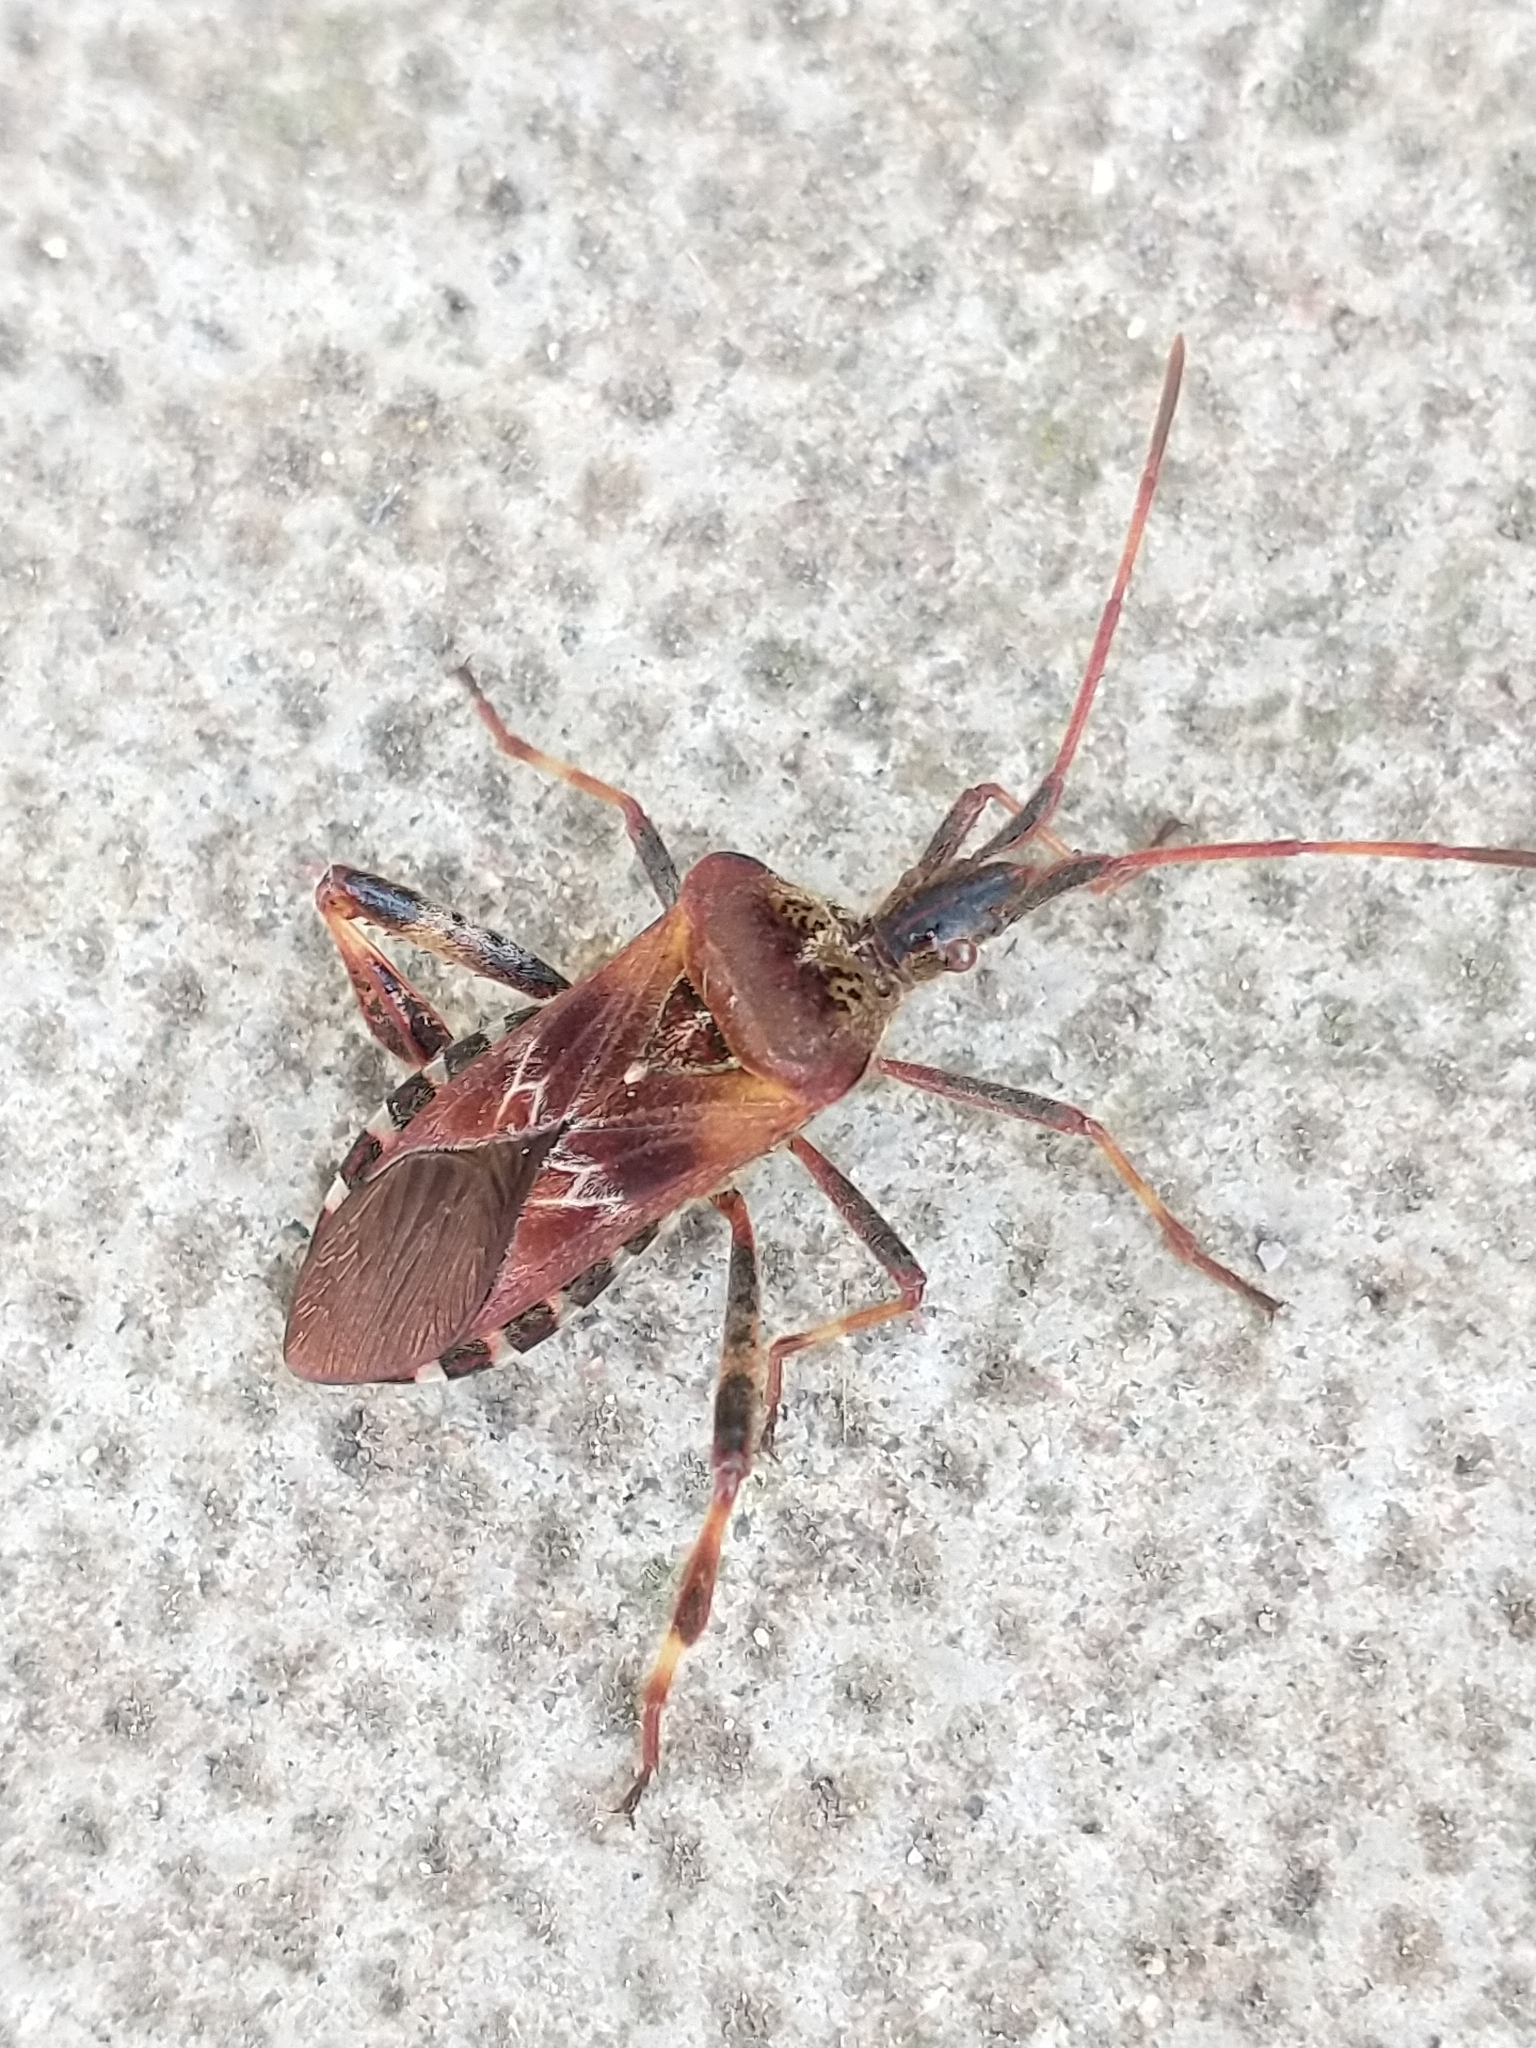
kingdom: Animalia
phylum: Arthropoda
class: Insecta
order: Hemiptera
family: Coreidae
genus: Leptoglossus
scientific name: Leptoglossus occidentalis
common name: Western conifer-seed bug
